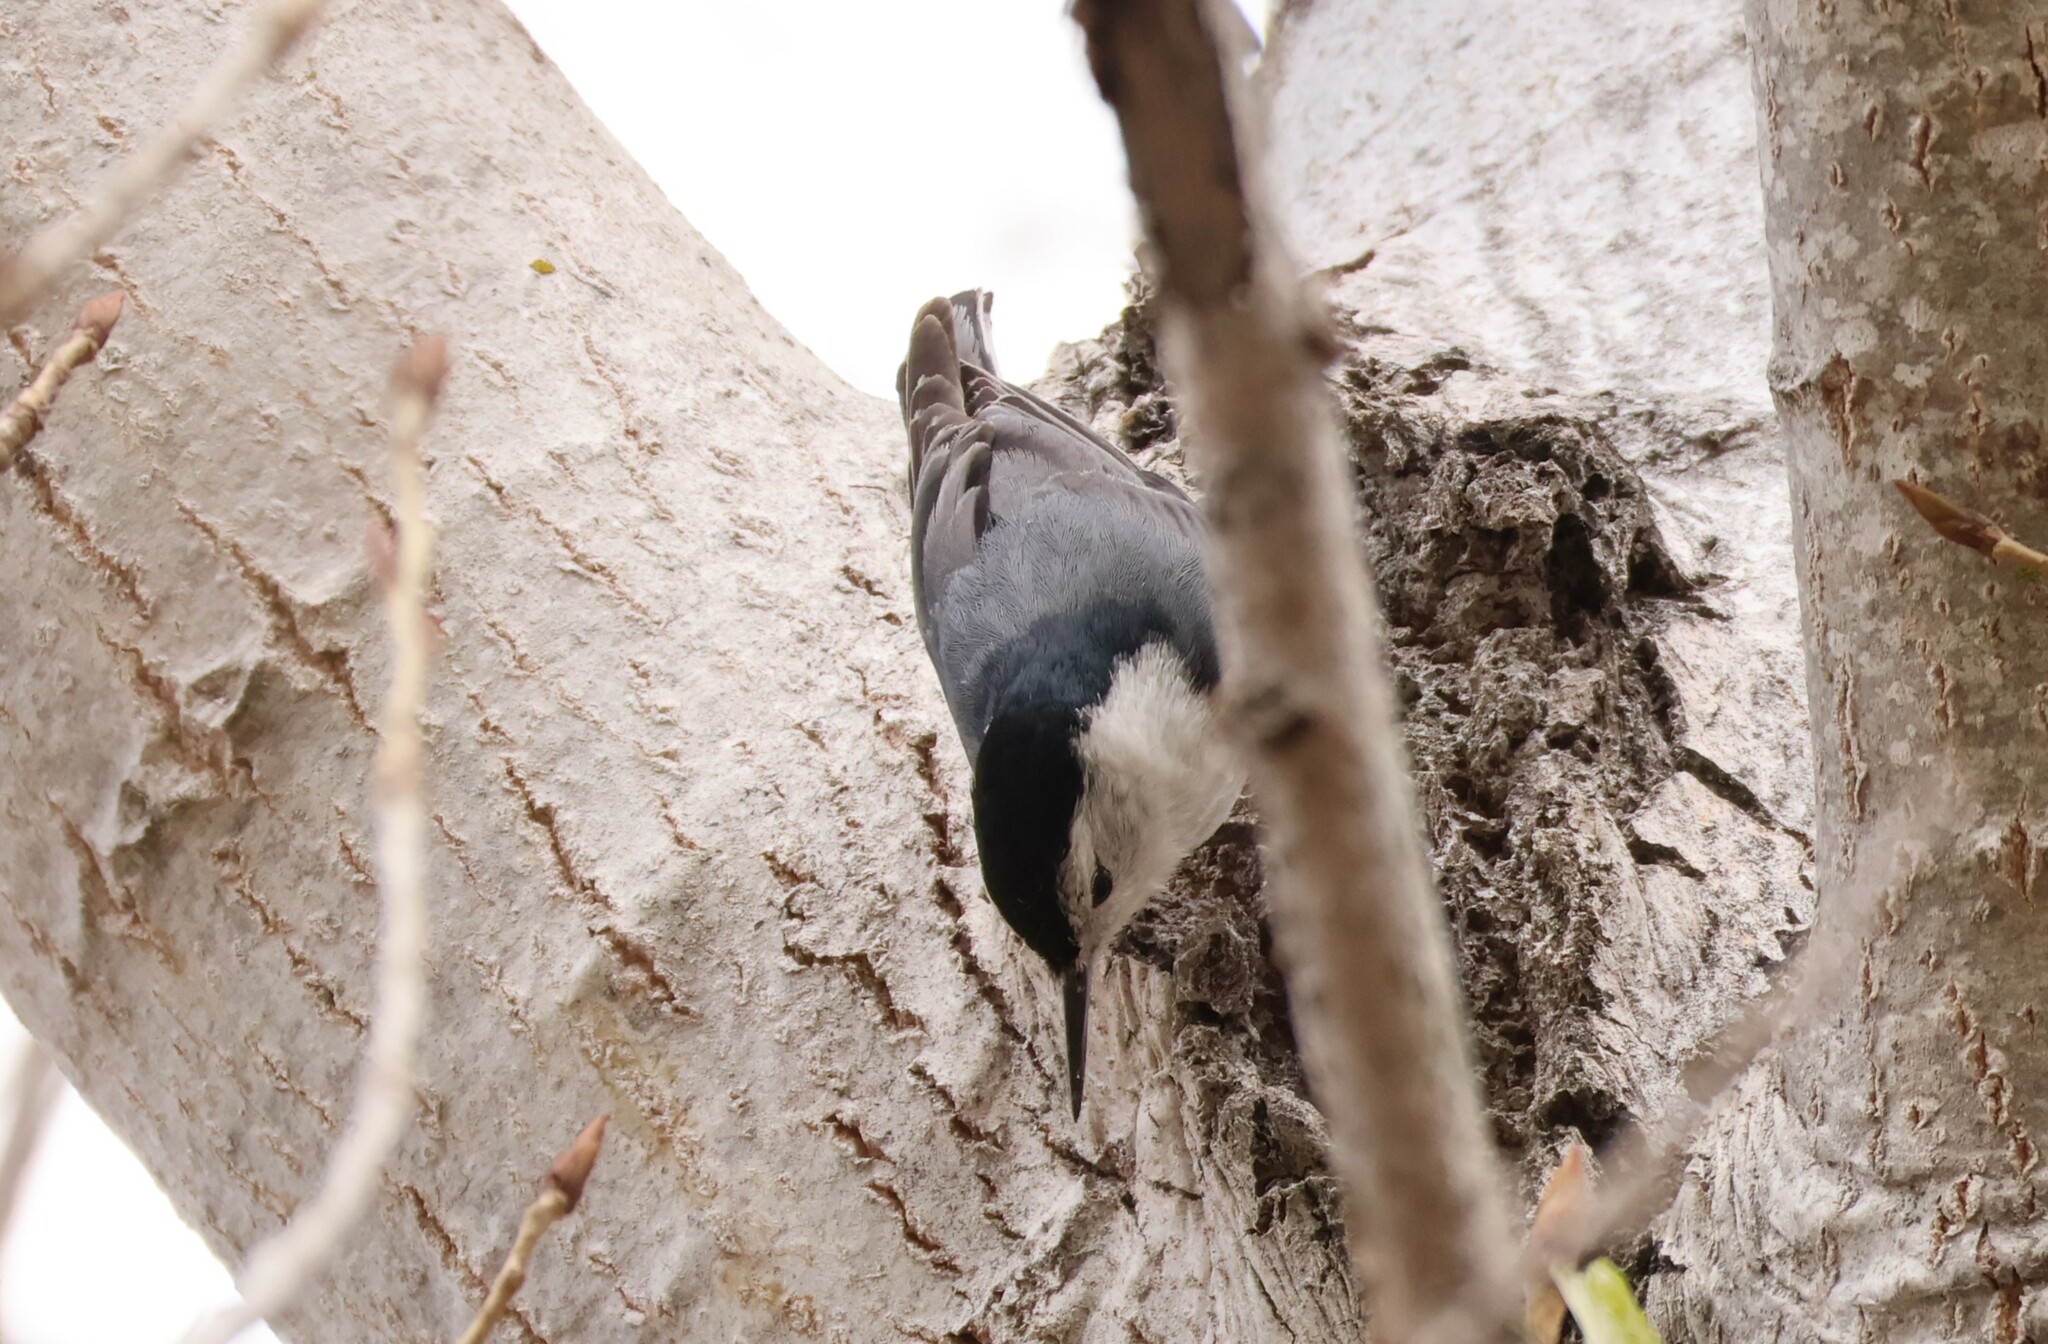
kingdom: Animalia
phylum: Chordata
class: Aves
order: Passeriformes
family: Sittidae
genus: Sitta
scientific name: Sitta carolinensis
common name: White-breasted nuthatch
